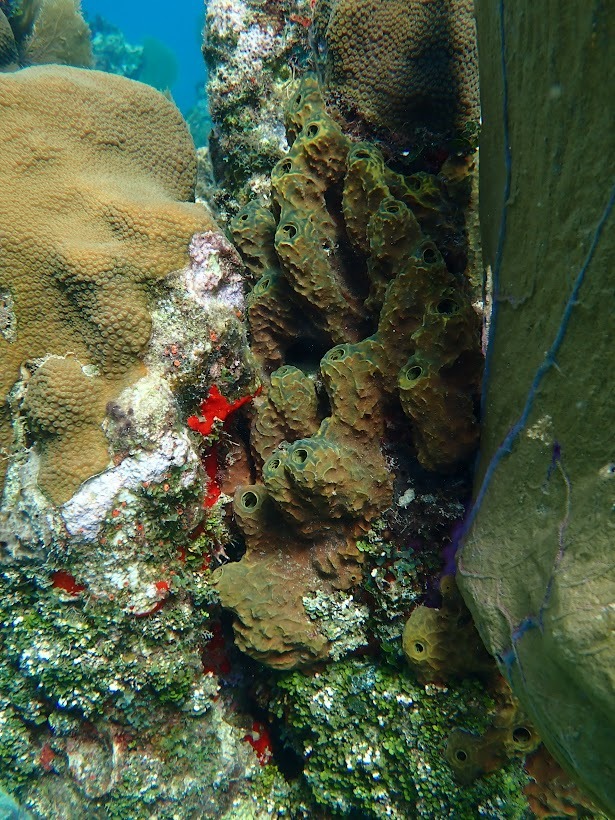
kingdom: Animalia
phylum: Porifera
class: Demospongiae
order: Verongiida
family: Aplysinidae
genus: Verongula
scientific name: Verongula rigida
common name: Pitted sponge
